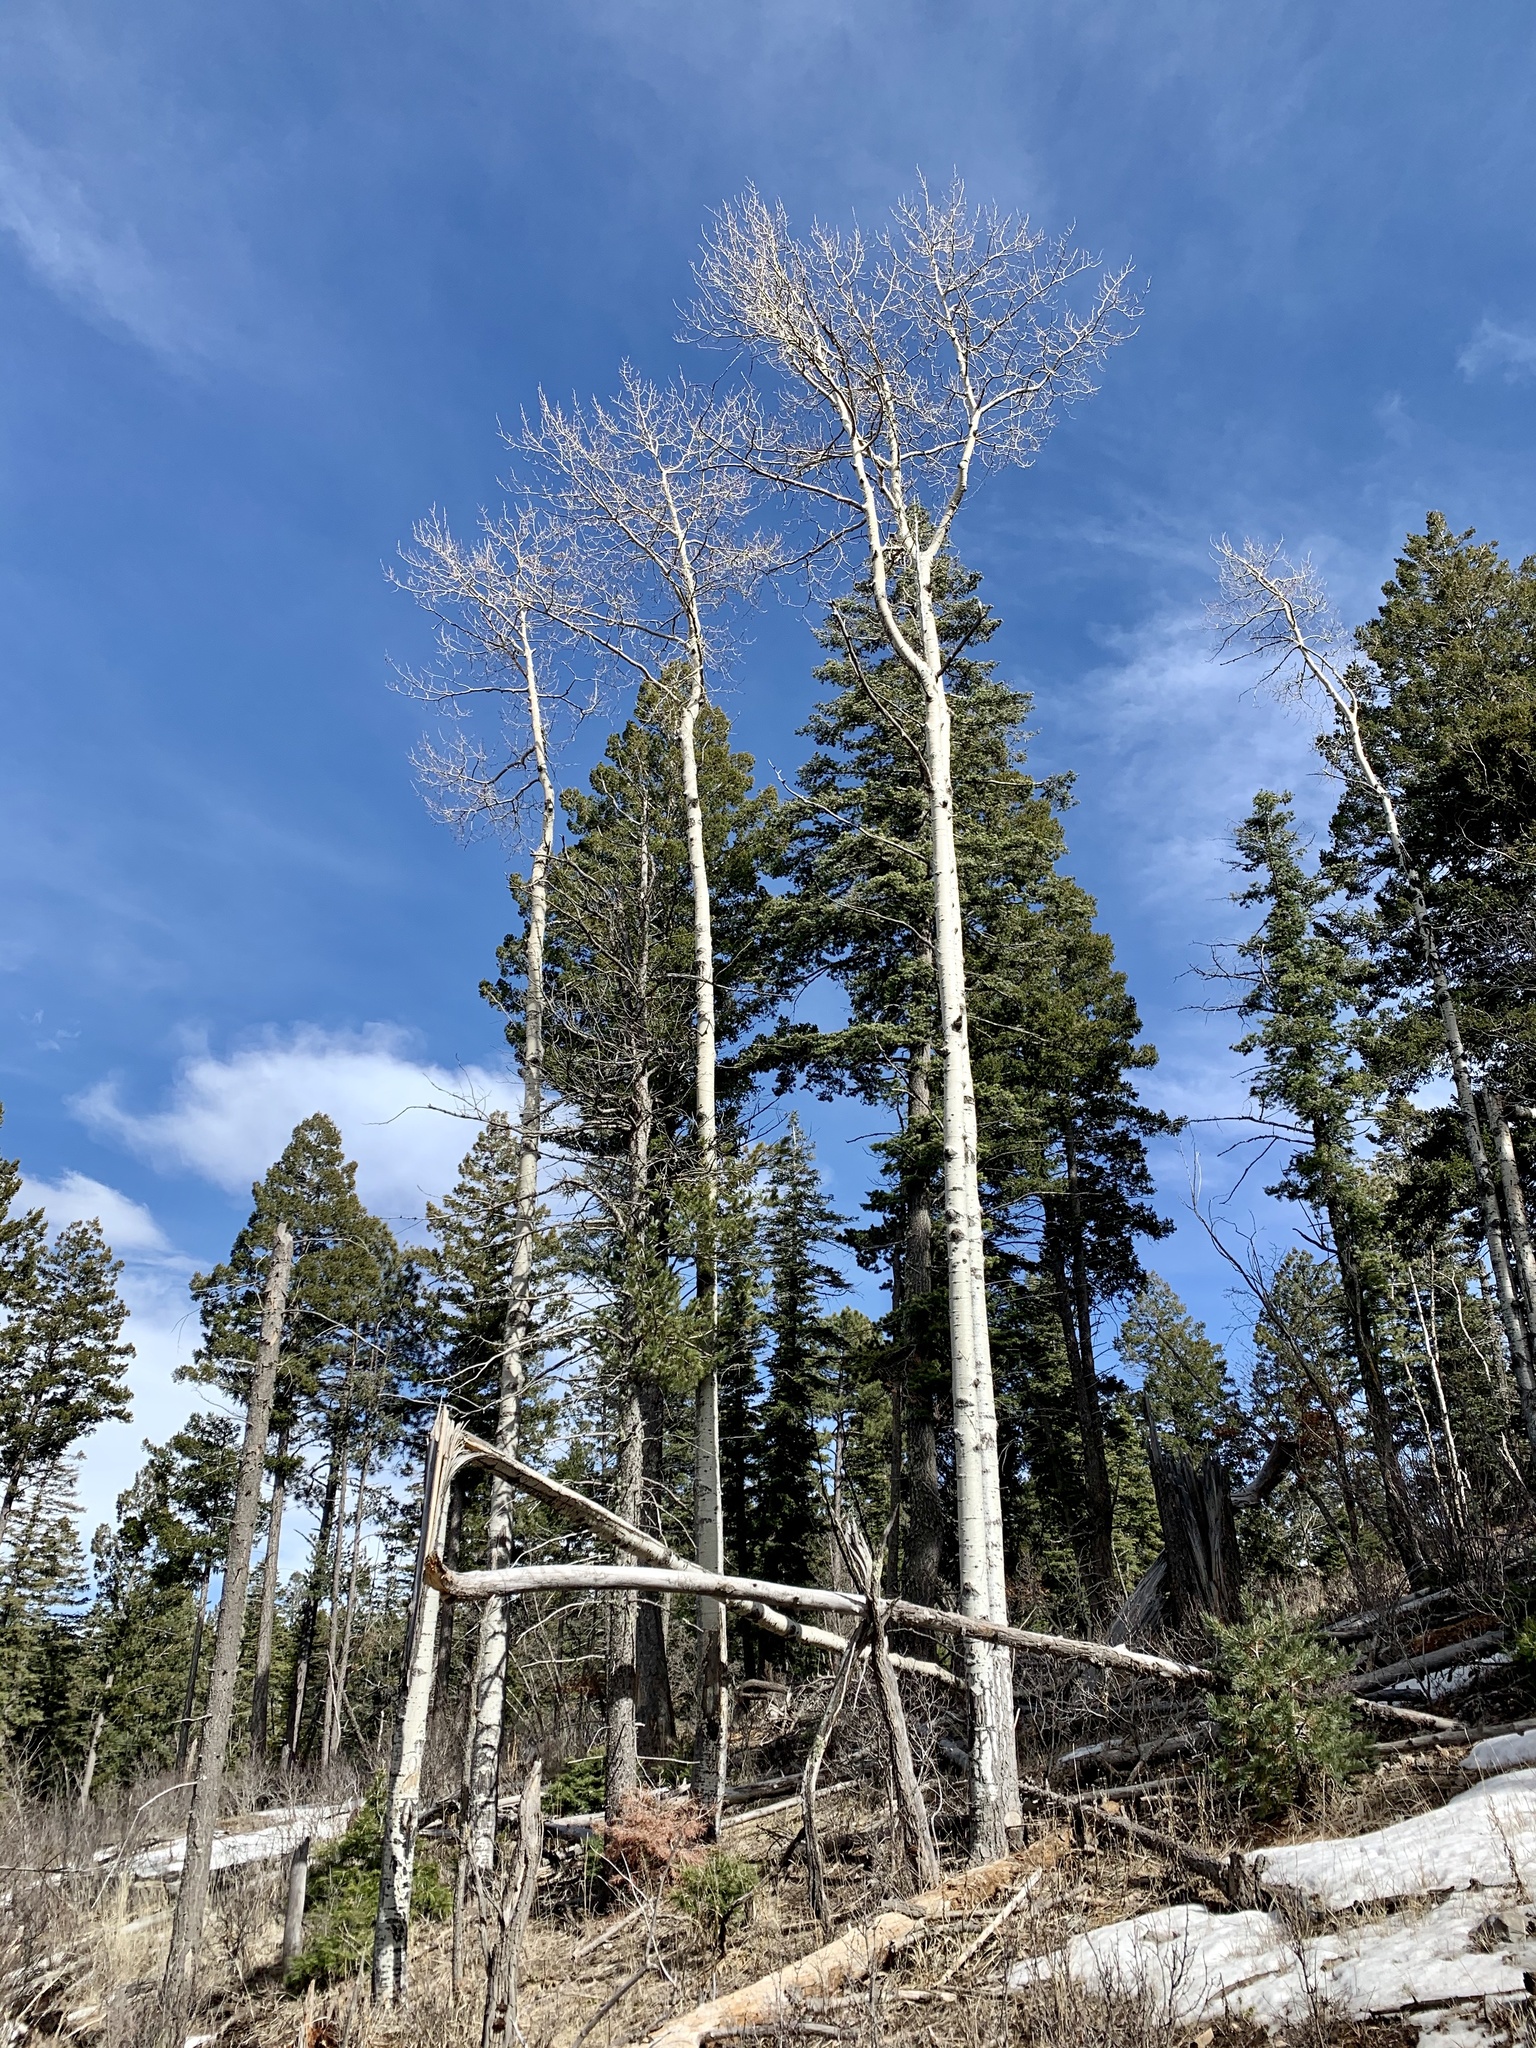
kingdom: Plantae
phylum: Tracheophyta
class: Magnoliopsida
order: Malpighiales
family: Salicaceae
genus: Populus
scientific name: Populus tremuloides
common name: Quaking aspen
